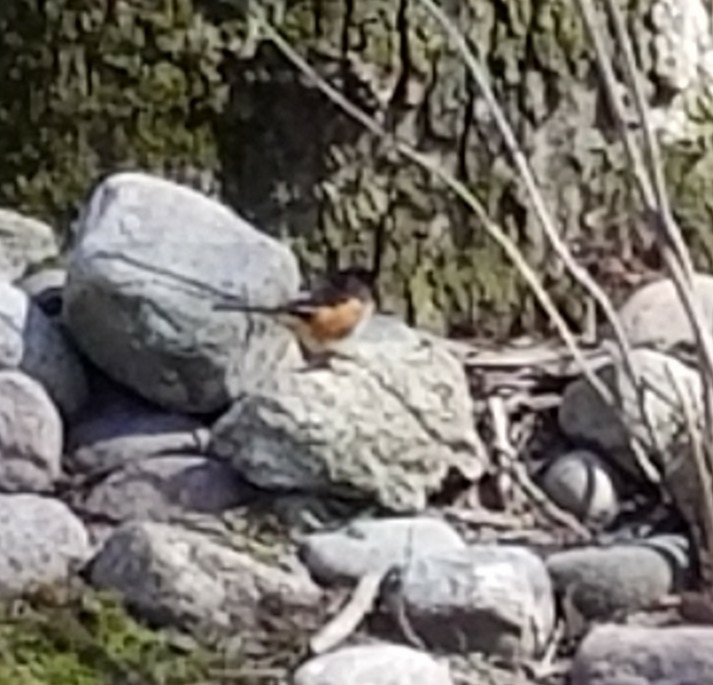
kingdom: Animalia
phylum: Chordata
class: Aves
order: Passeriformes
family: Passerellidae
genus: Pipilo
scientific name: Pipilo erythrophthalmus
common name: Eastern towhee
